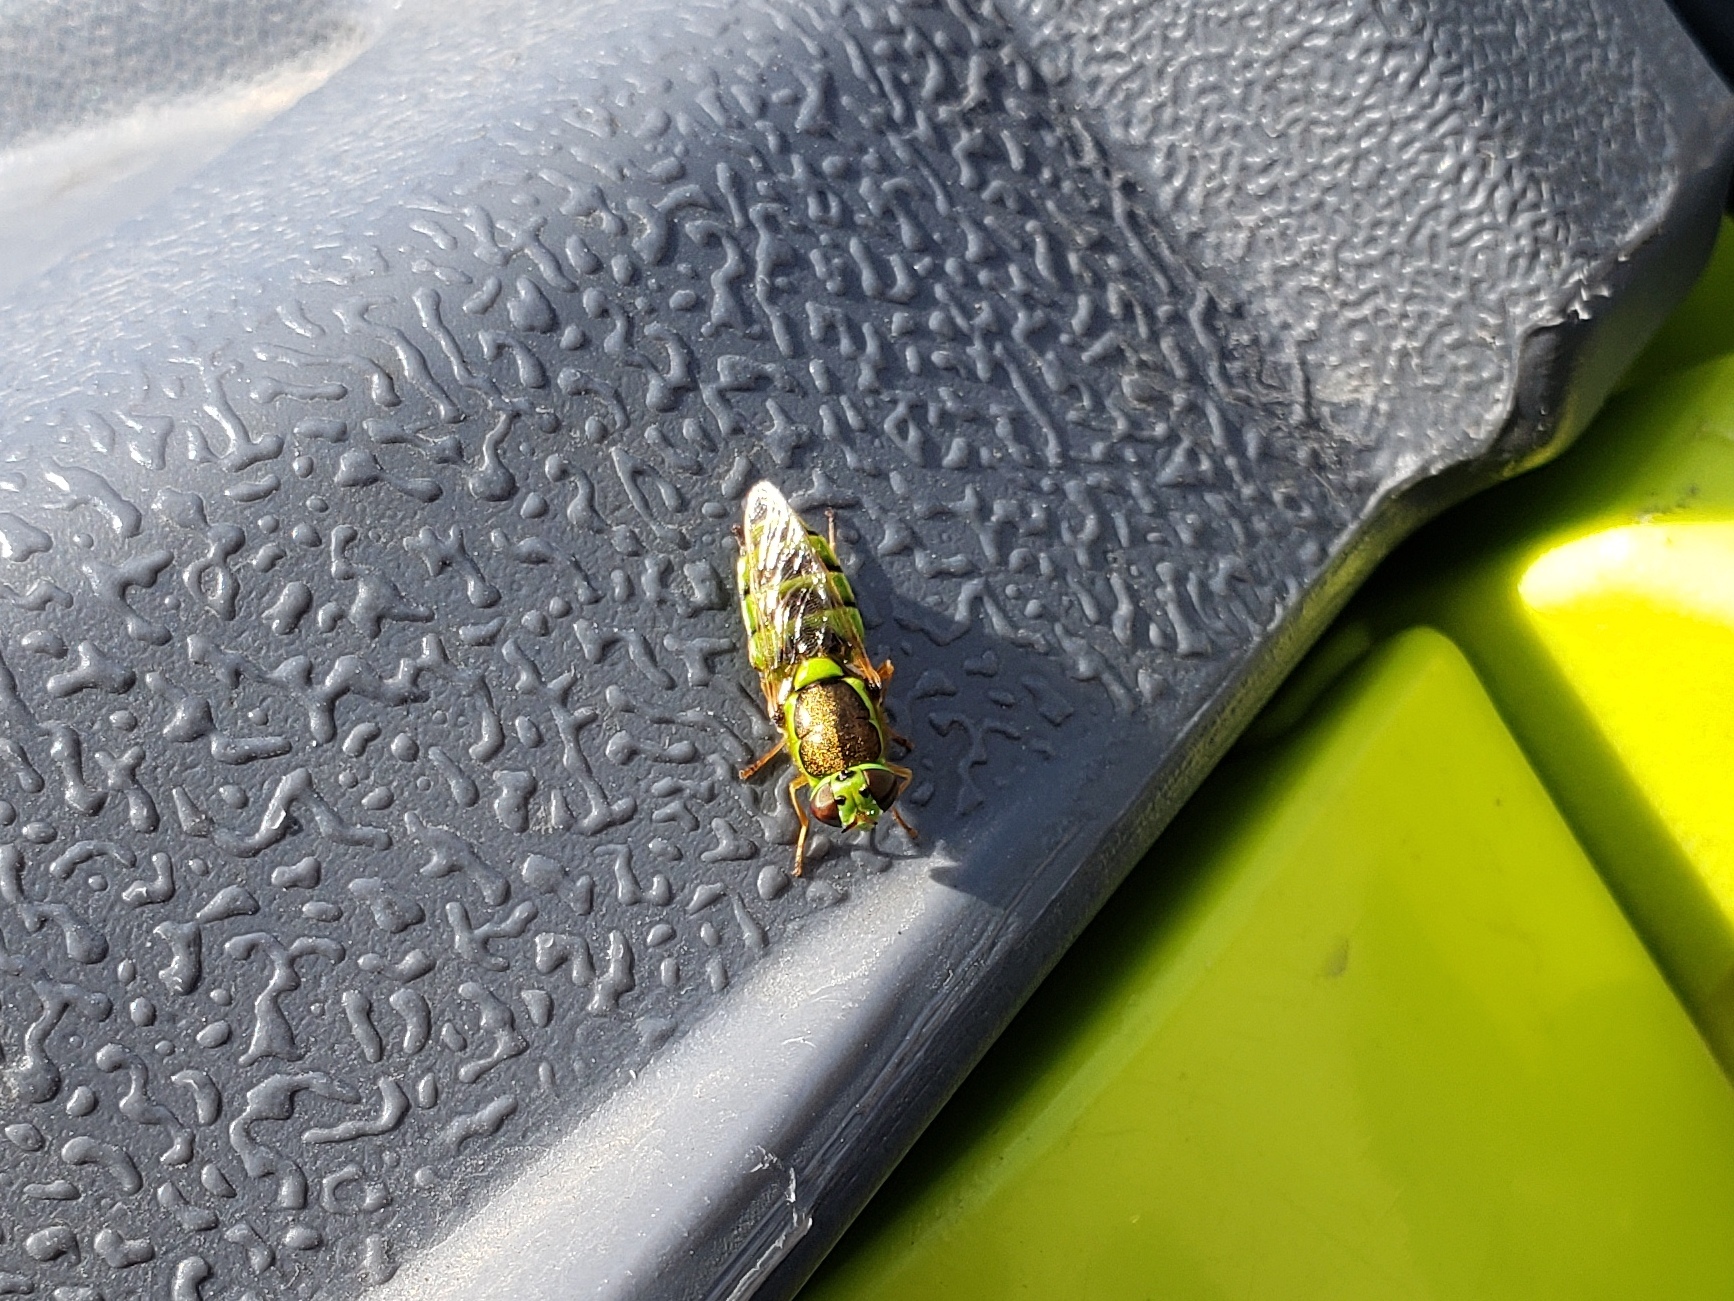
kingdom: Animalia
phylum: Arthropoda
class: Insecta
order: Diptera
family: Stratiomyidae
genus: Odontomyia
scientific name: Odontomyia cincta
